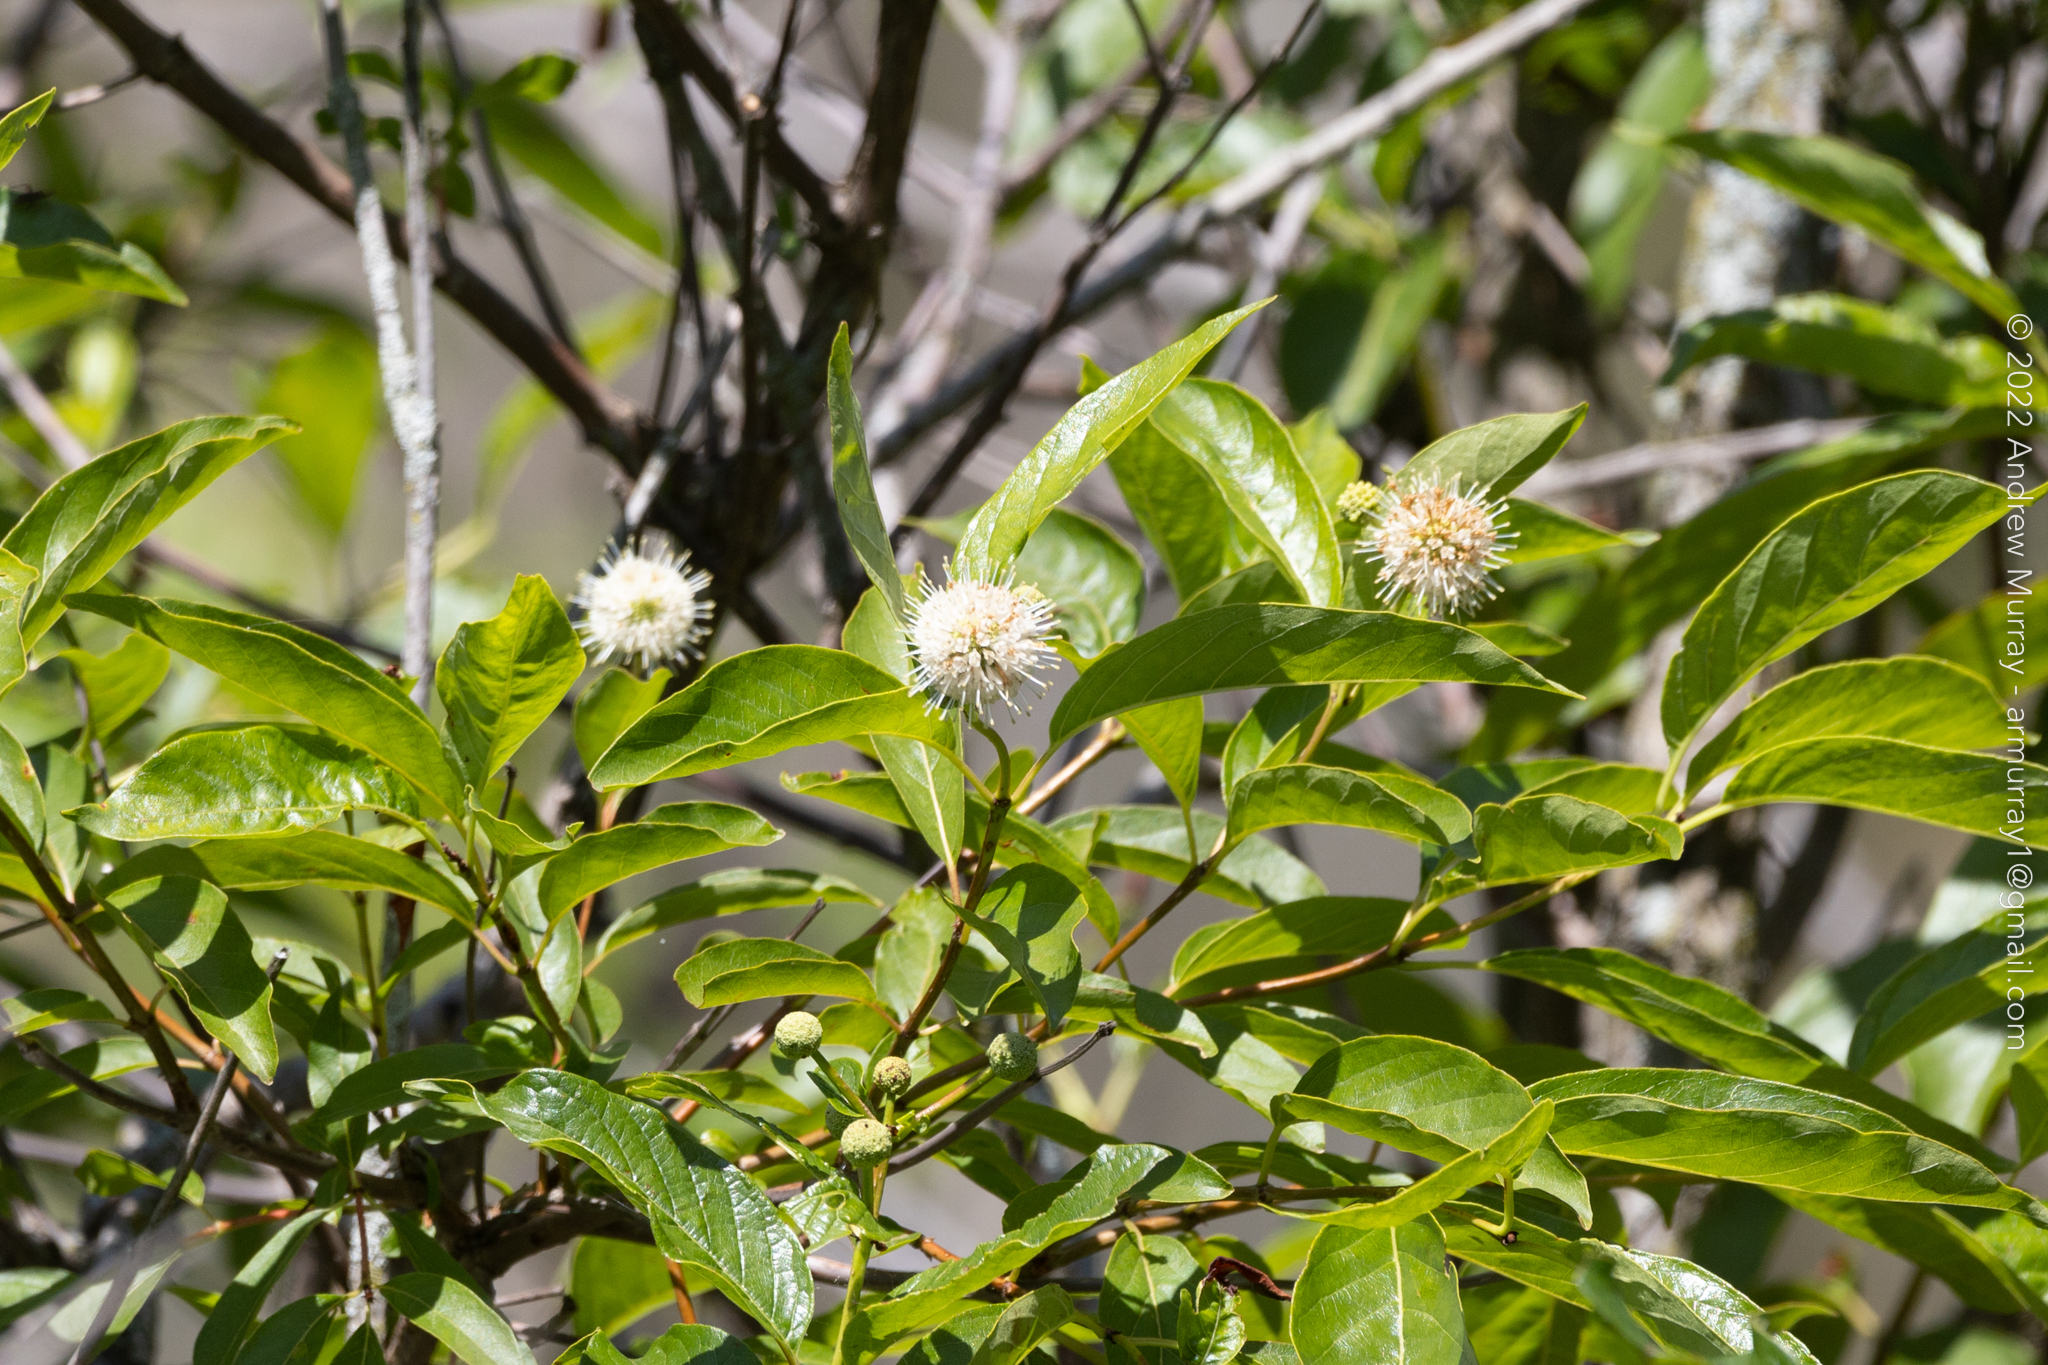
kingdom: Plantae
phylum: Tracheophyta
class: Magnoliopsida
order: Gentianales
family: Rubiaceae
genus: Cephalanthus
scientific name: Cephalanthus occidentalis
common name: Button-willow
